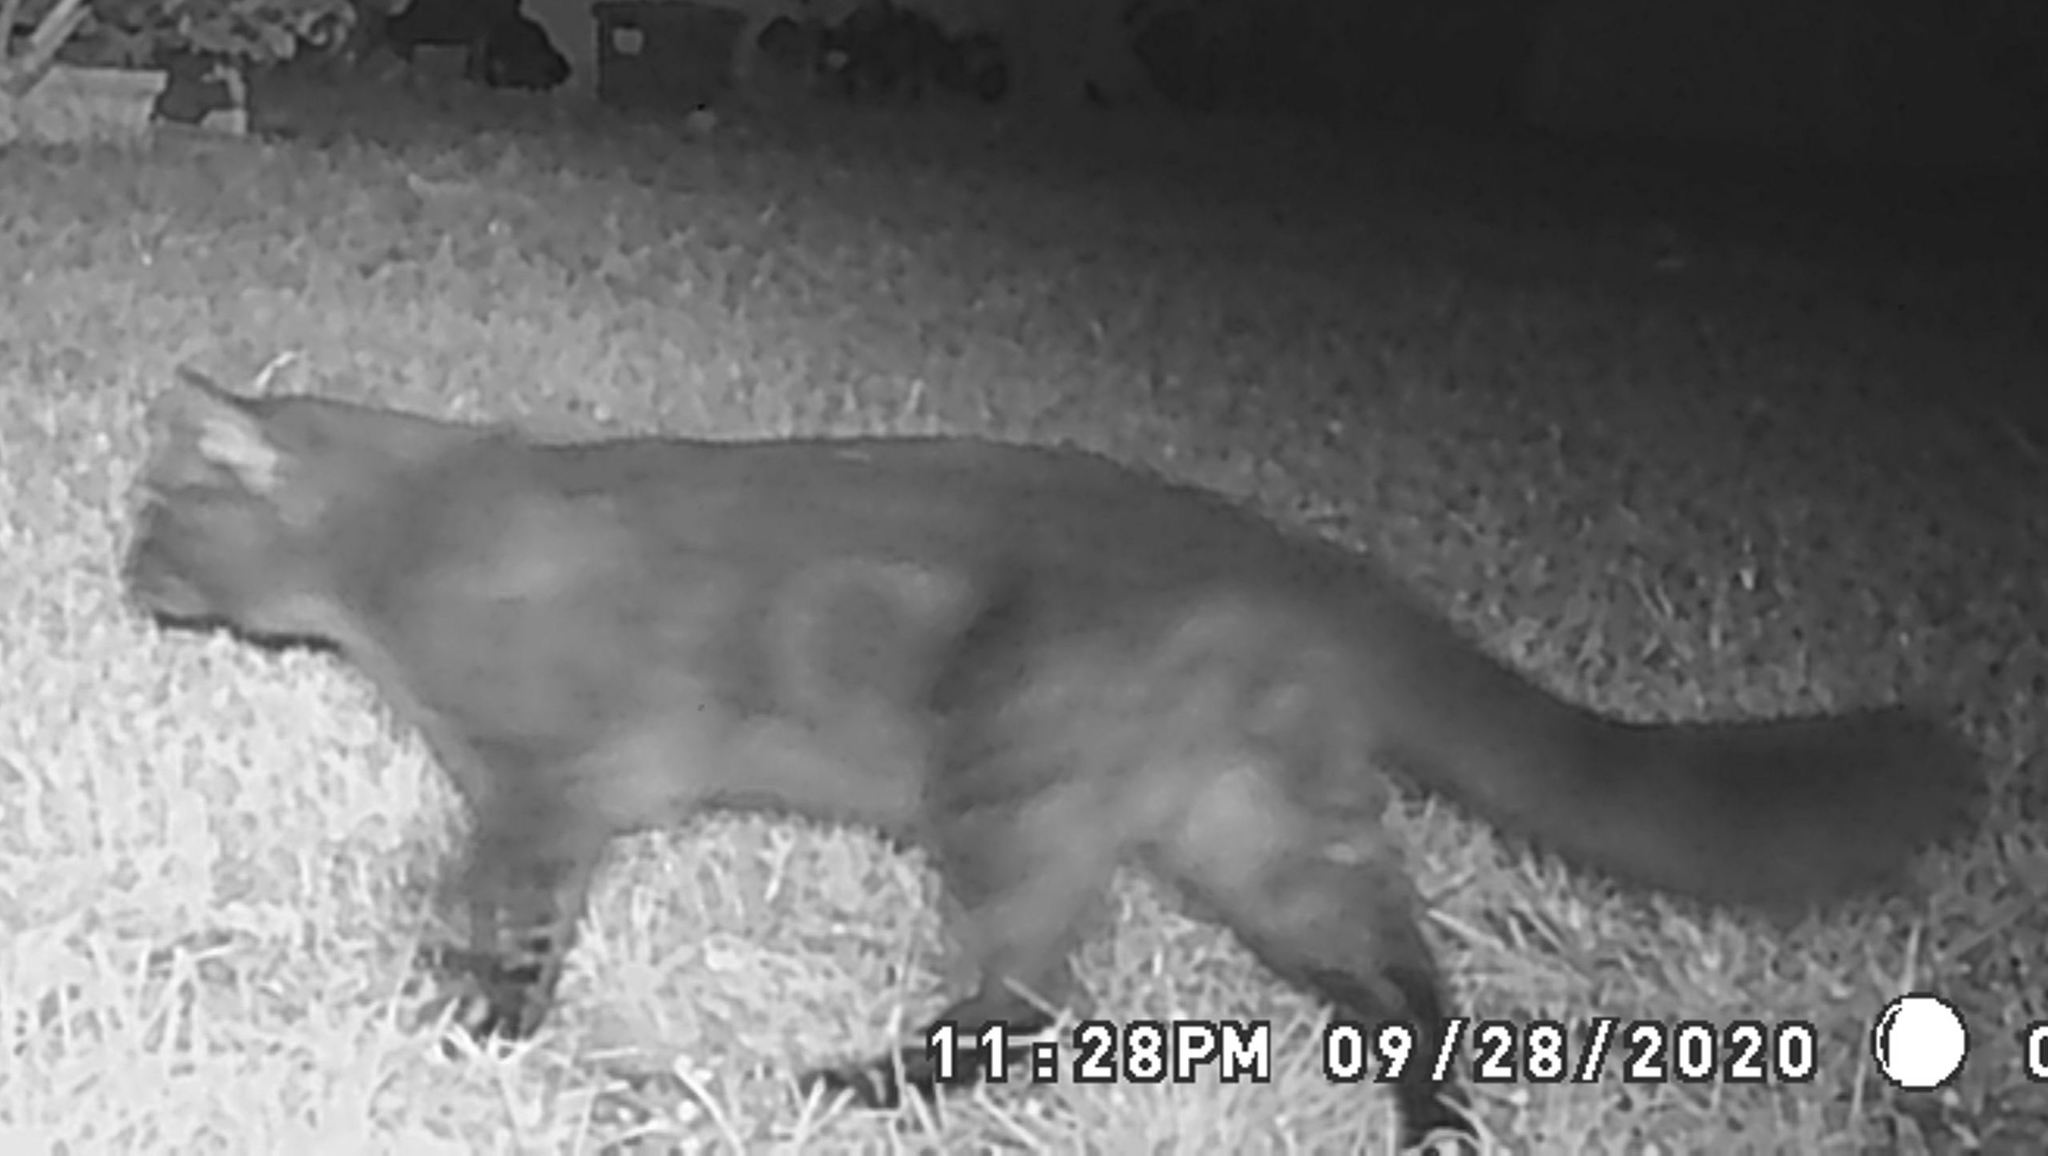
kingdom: Animalia
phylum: Chordata
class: Mammalia
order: Carnivora
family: Felidae
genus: Felis
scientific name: Felis catus
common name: Domestic cat
